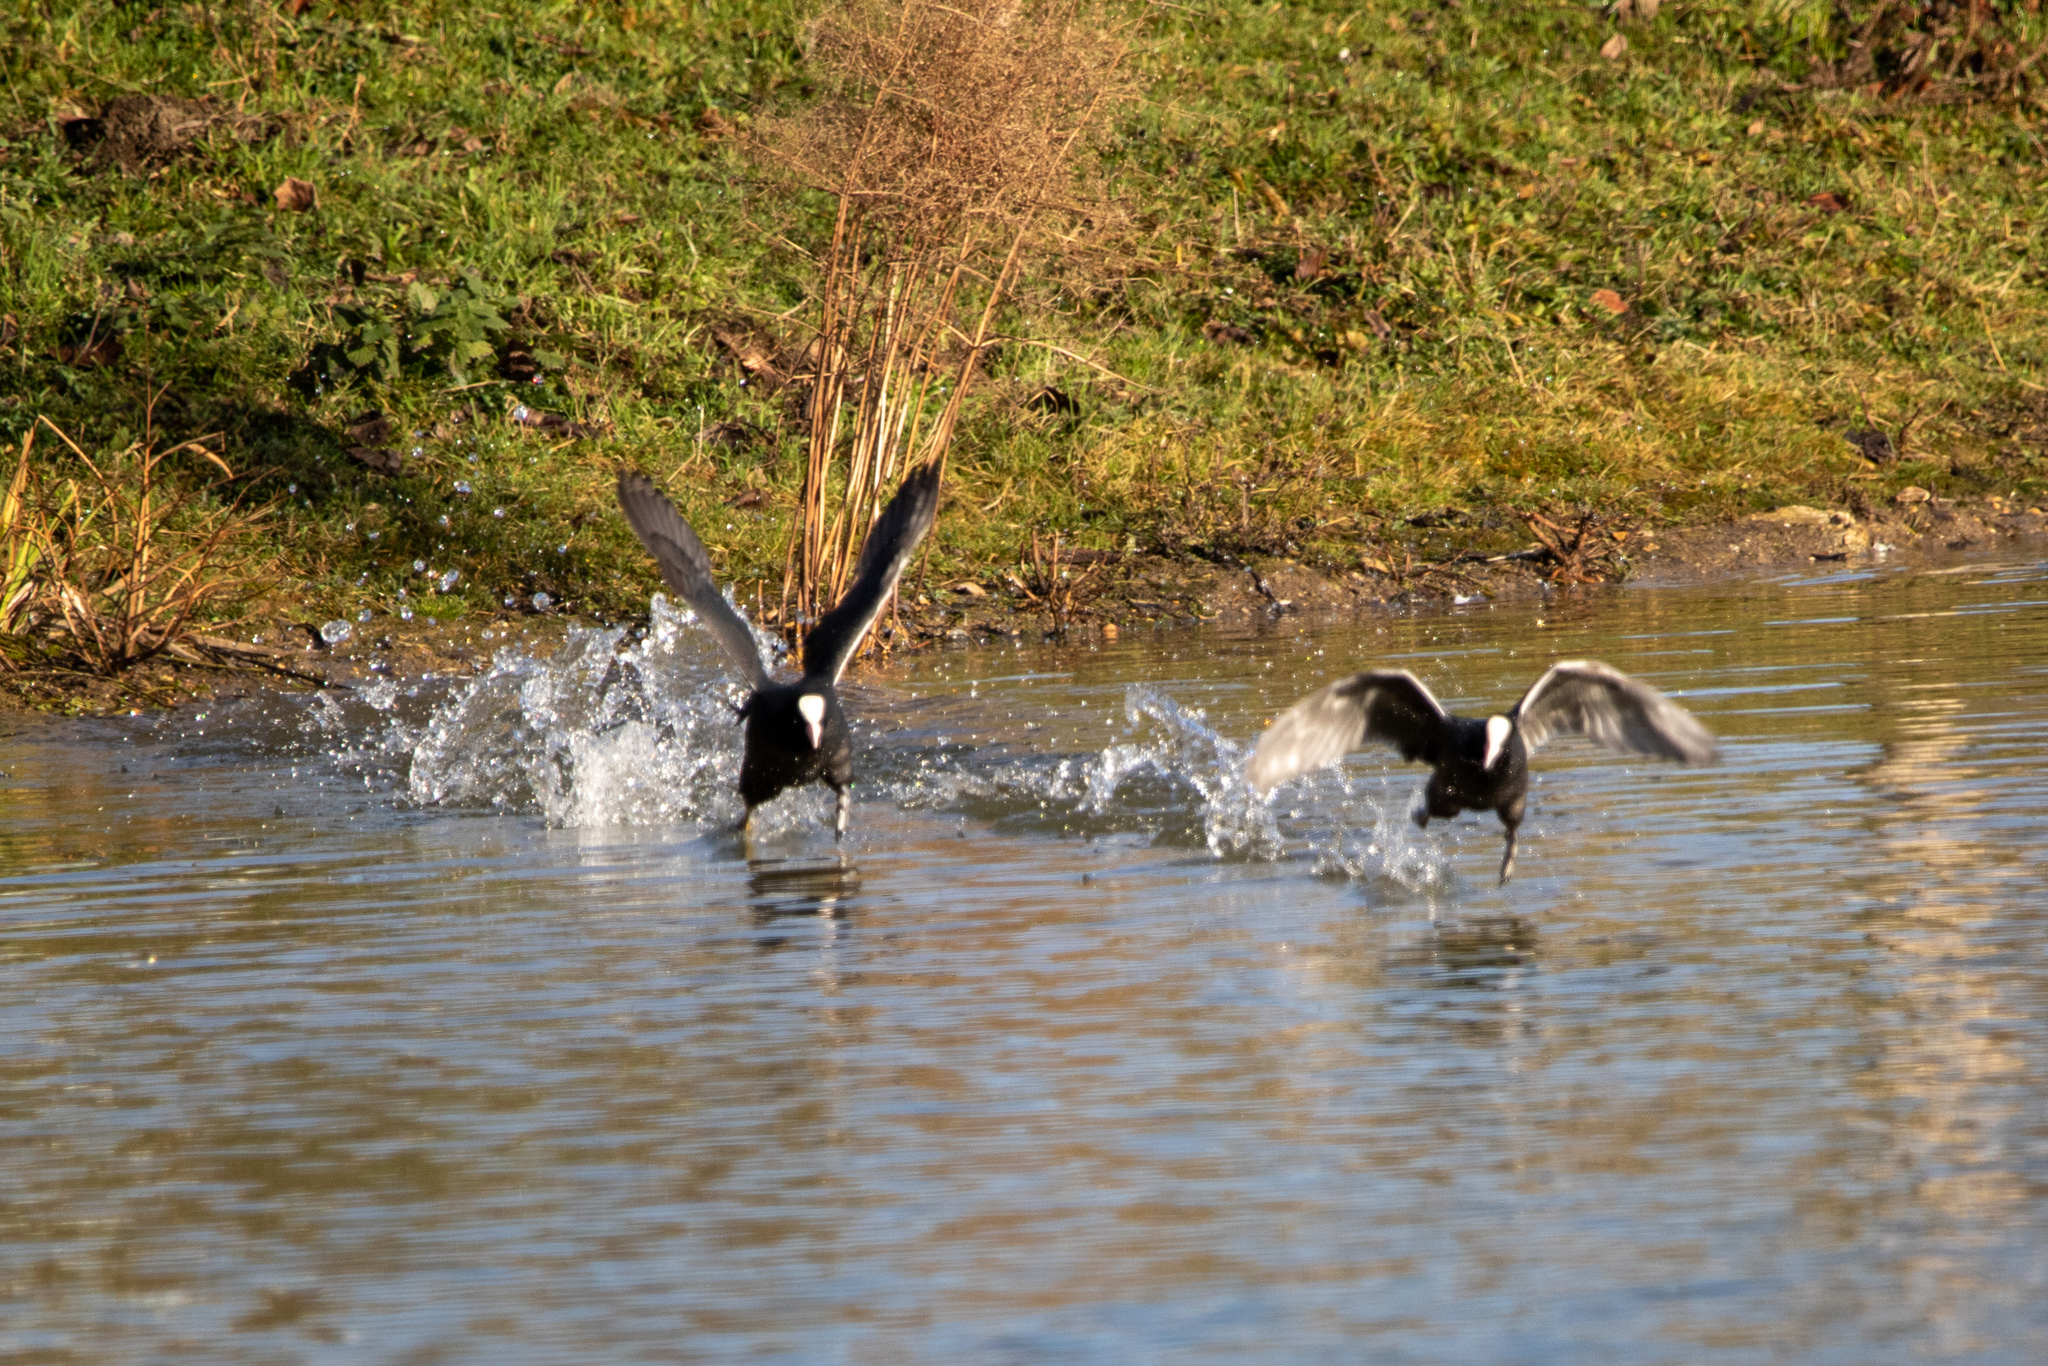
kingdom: Animalia
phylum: Chordata
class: Aves
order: Gruiformes
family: Rallidae
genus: Fulica
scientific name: Fulica atra
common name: Eurasian coot
